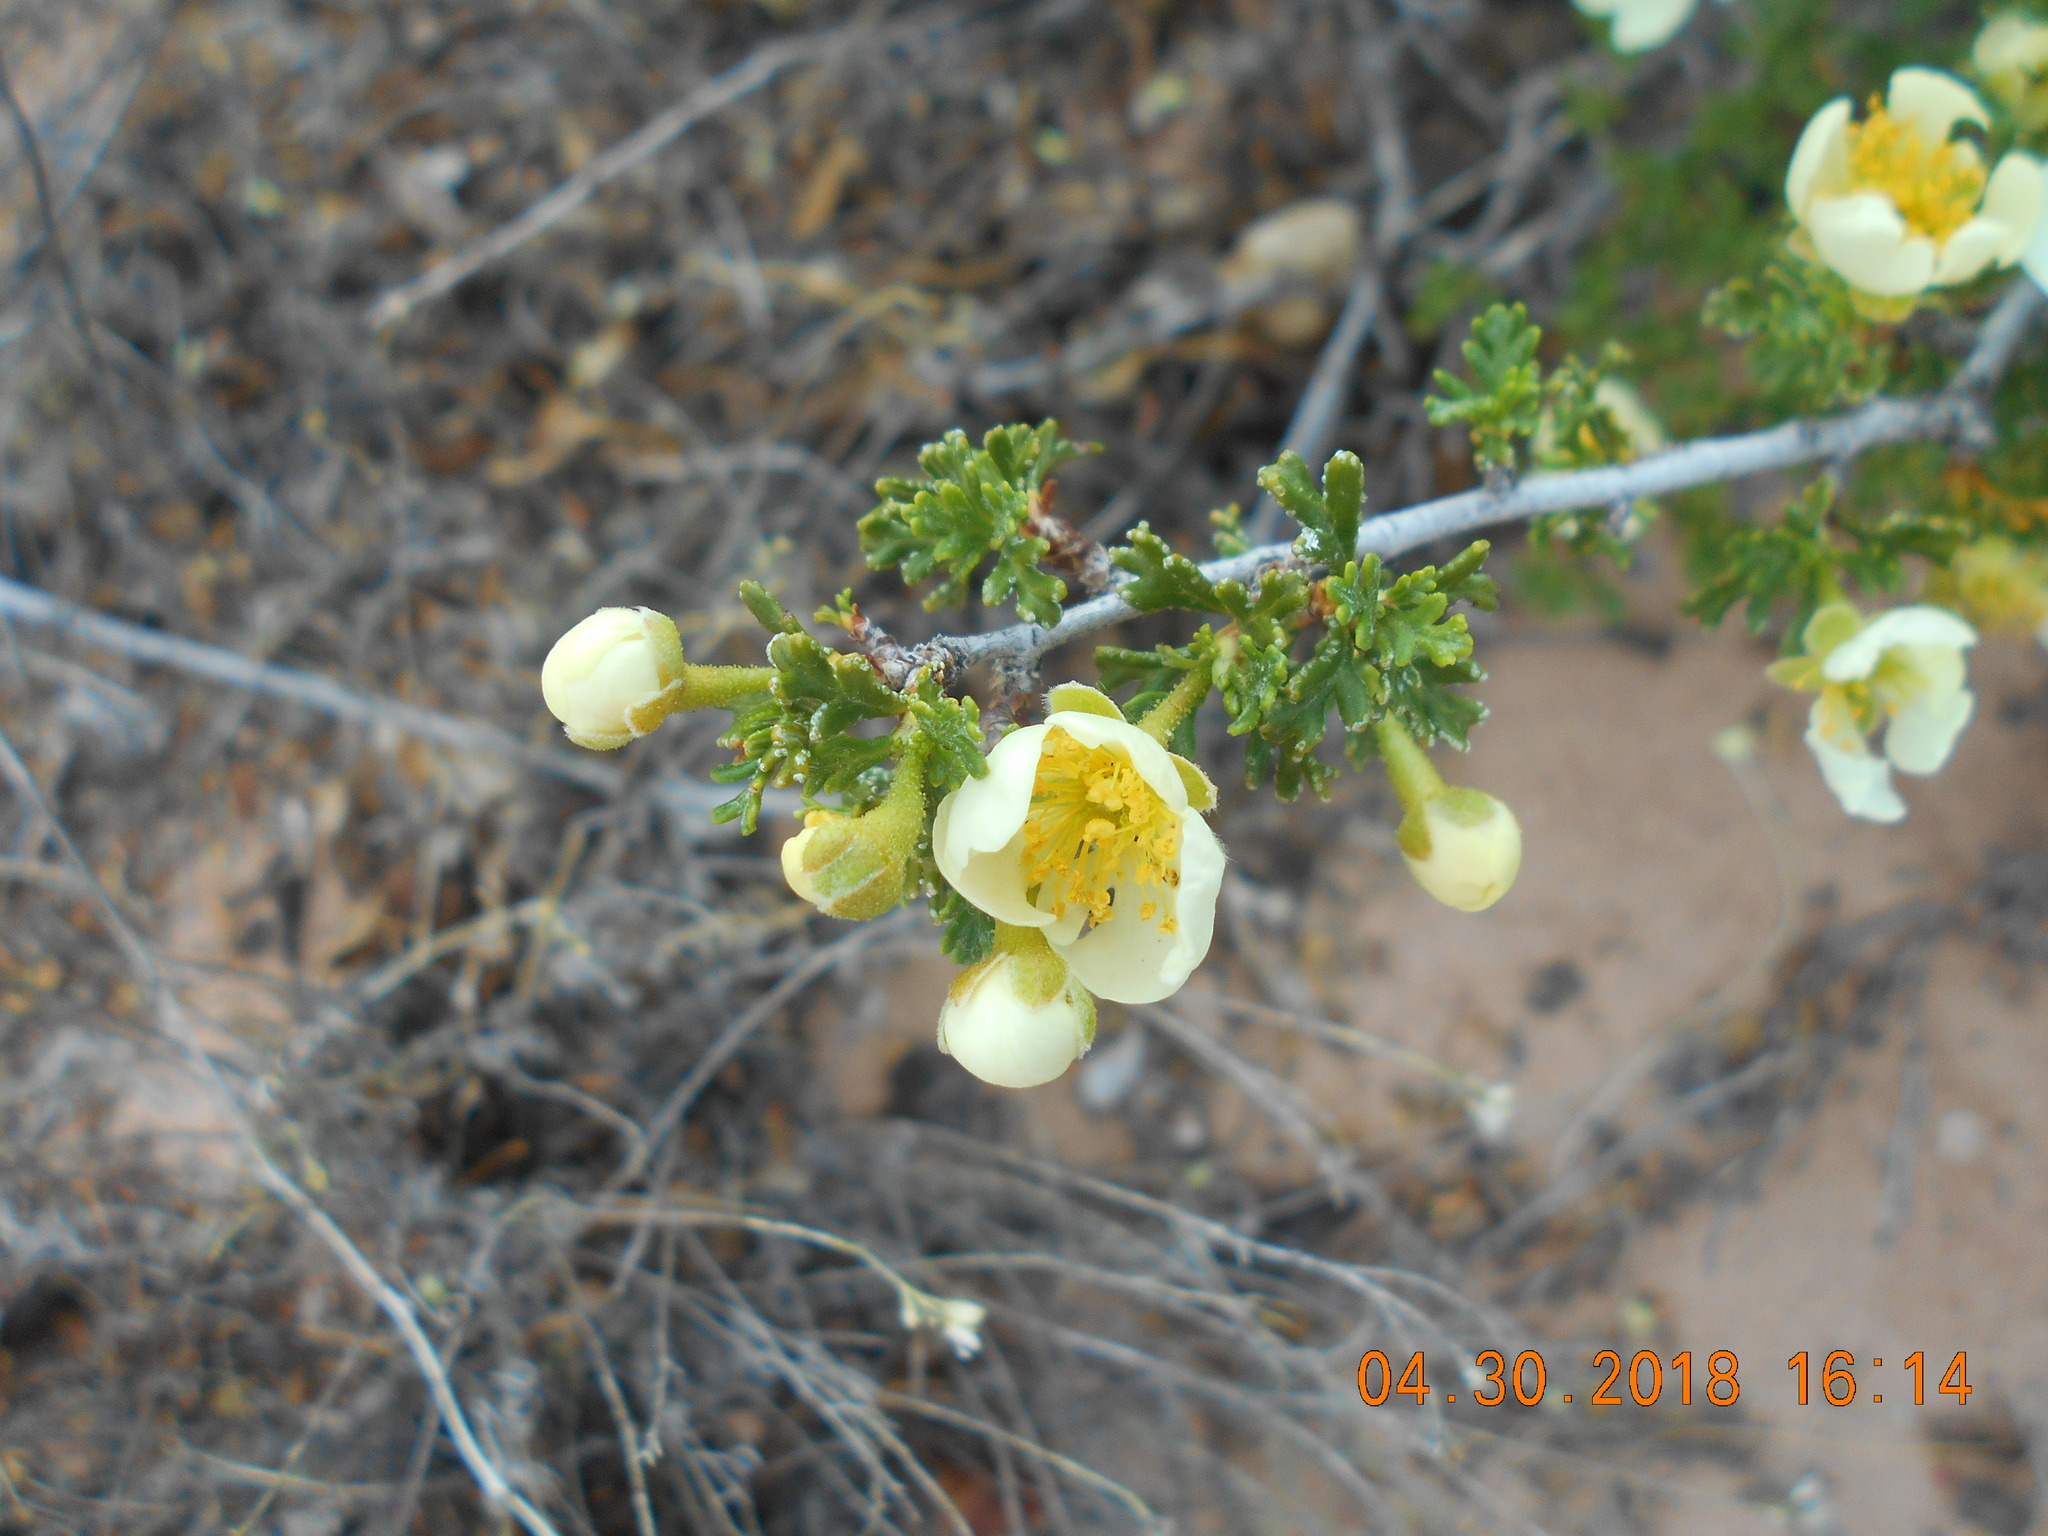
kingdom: Plantae
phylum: Tracheophyta
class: Magnoliopsida
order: Rosales
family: Rosaceae
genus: Purshia
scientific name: Purshia stansburiana
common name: Stansbury's cliffrose
